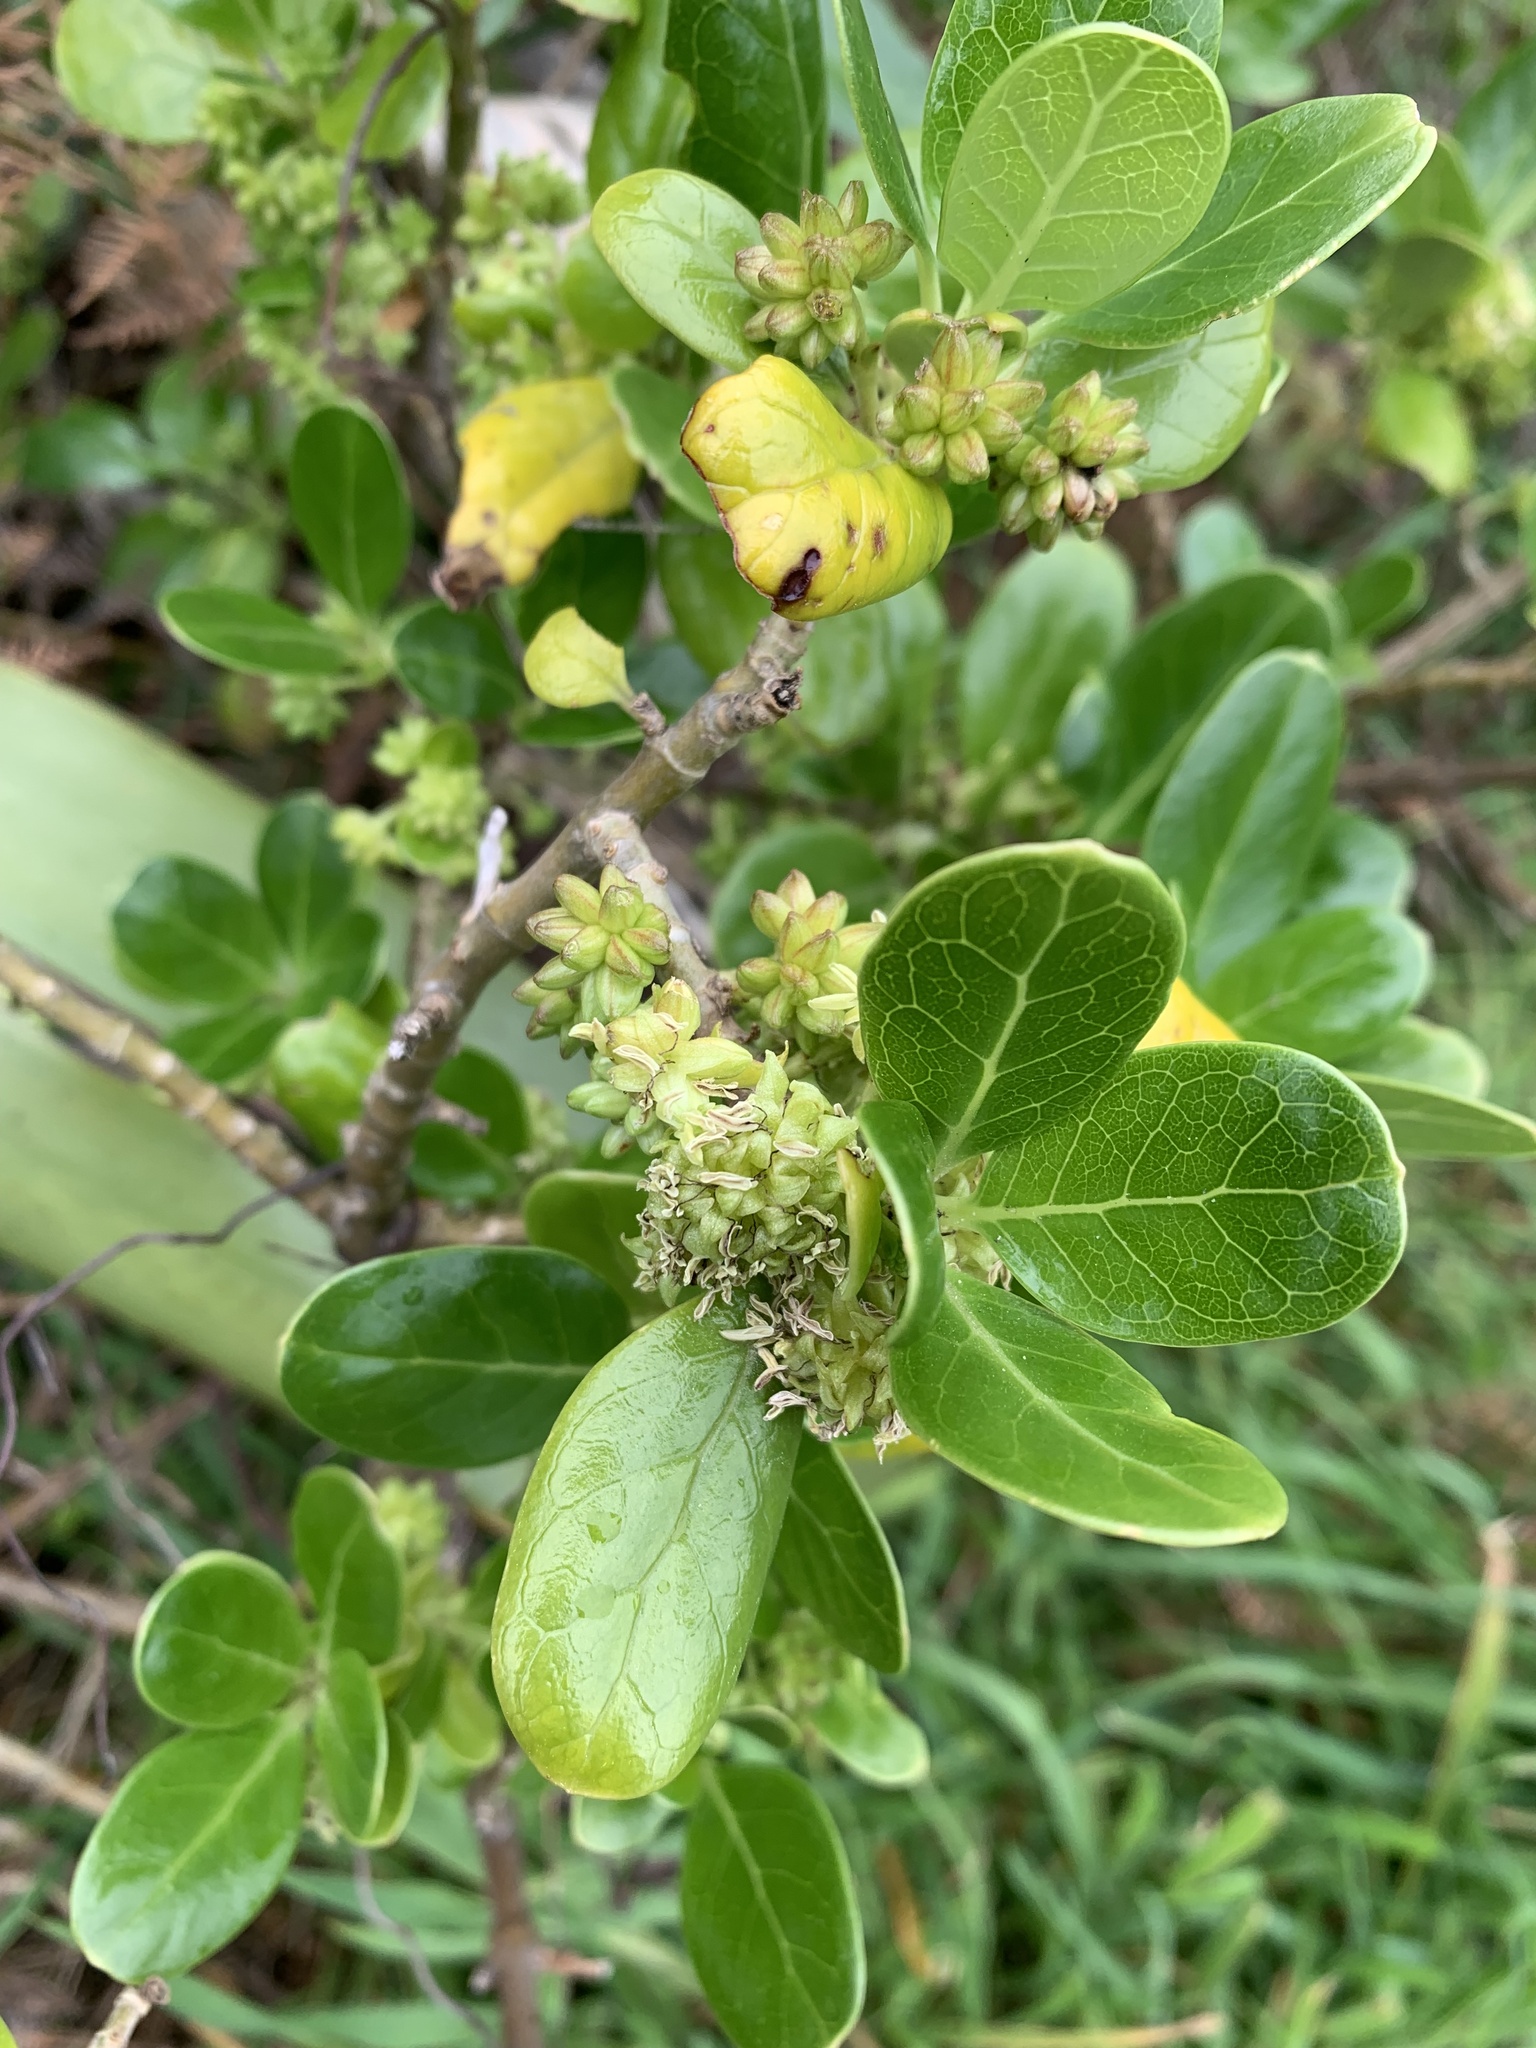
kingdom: Plantae
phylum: Tracheophyta
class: Magnoliopsida
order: Gentianales
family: Rubiaceae
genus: Coprosma
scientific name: Coprosma repens
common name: Tree bedstraw
